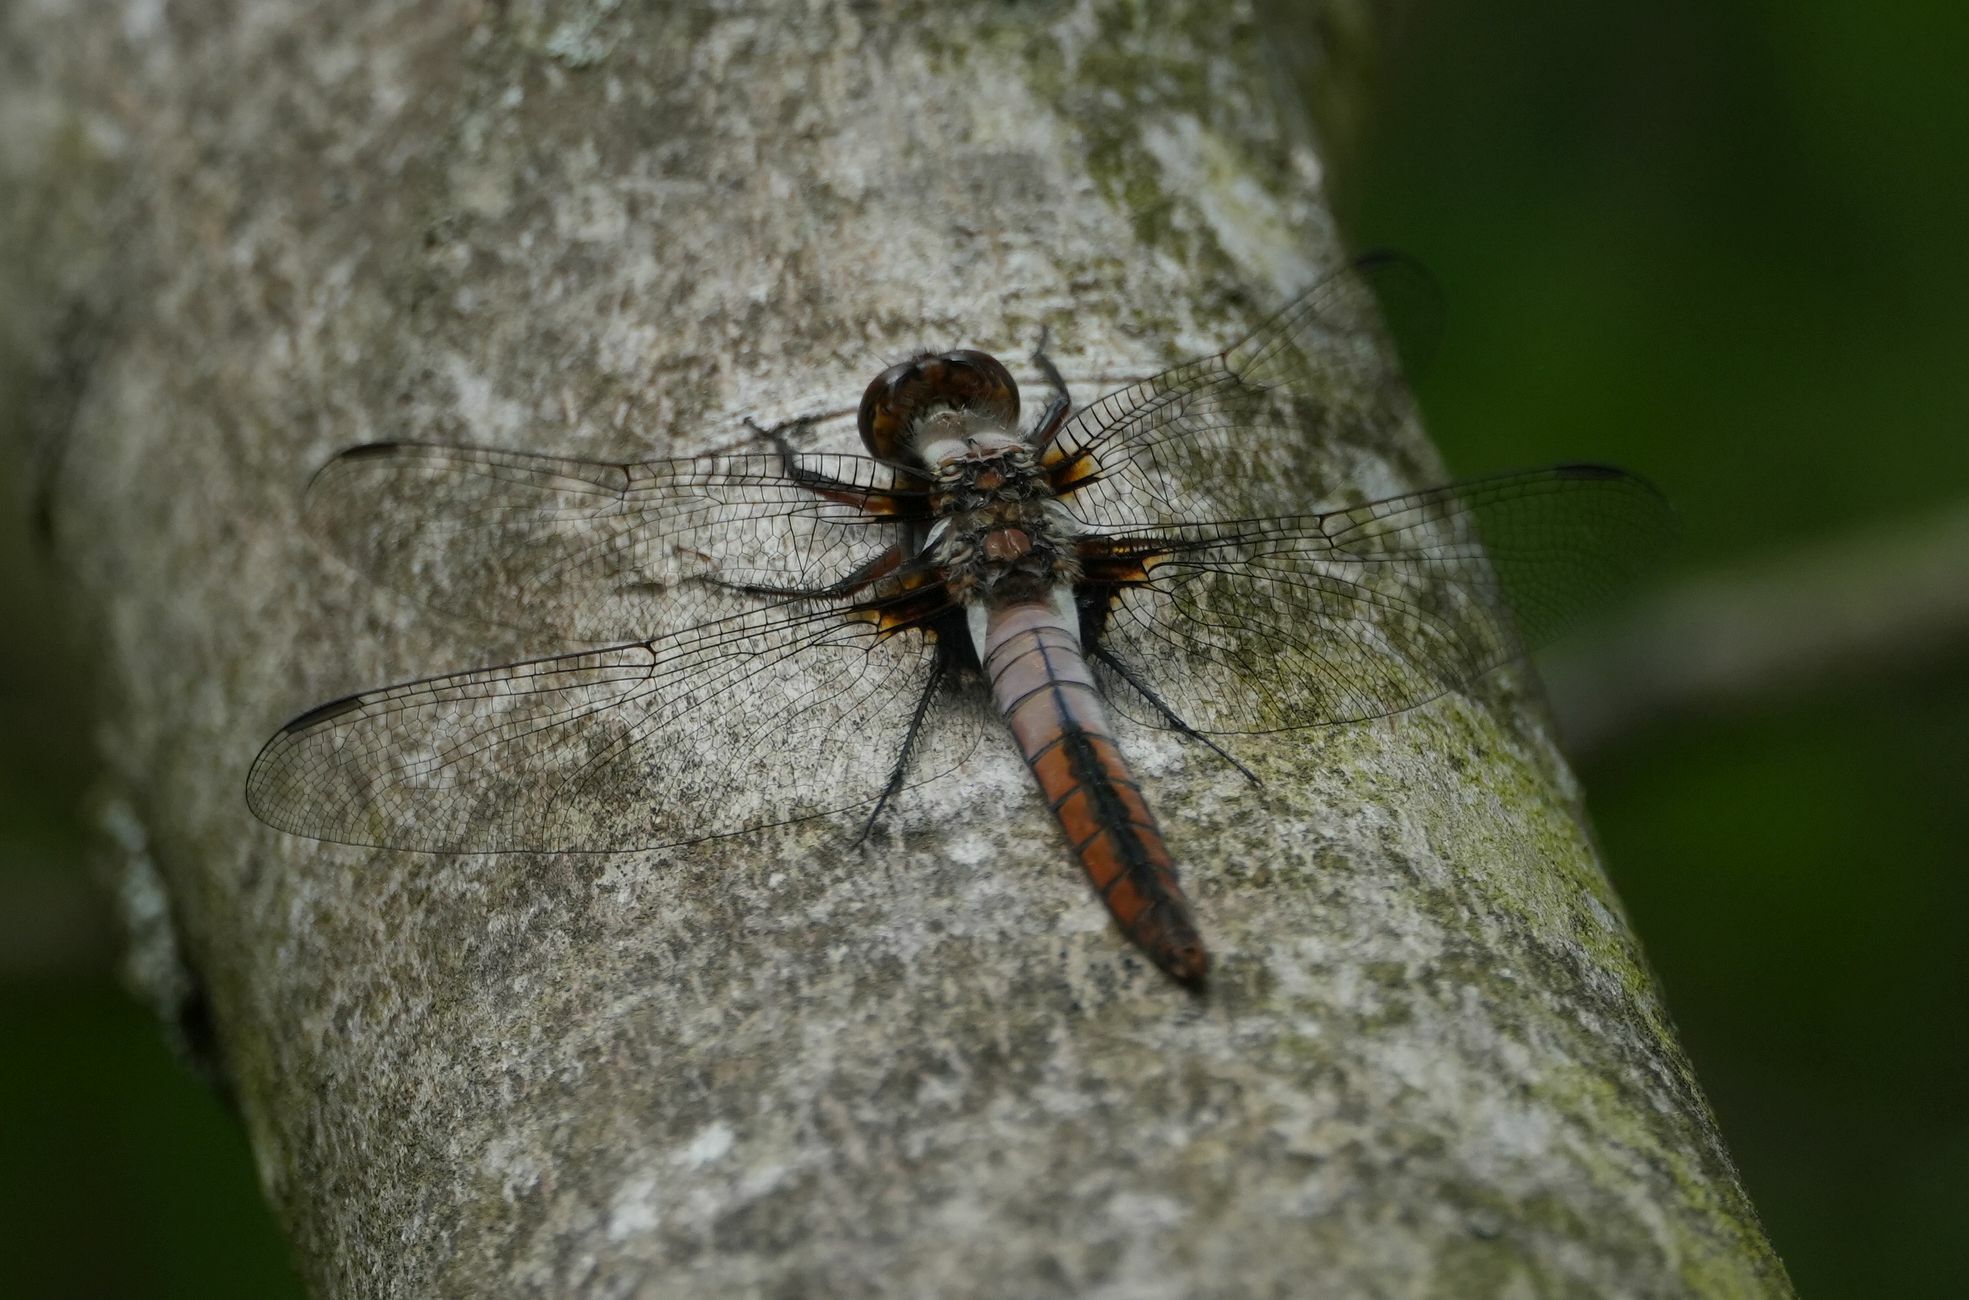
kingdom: Animalia
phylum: Arthropoda
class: Insecta
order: Odonata
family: Libellulidae
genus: Ladona
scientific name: Ladona julia
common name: Chalk-fronted corporal
